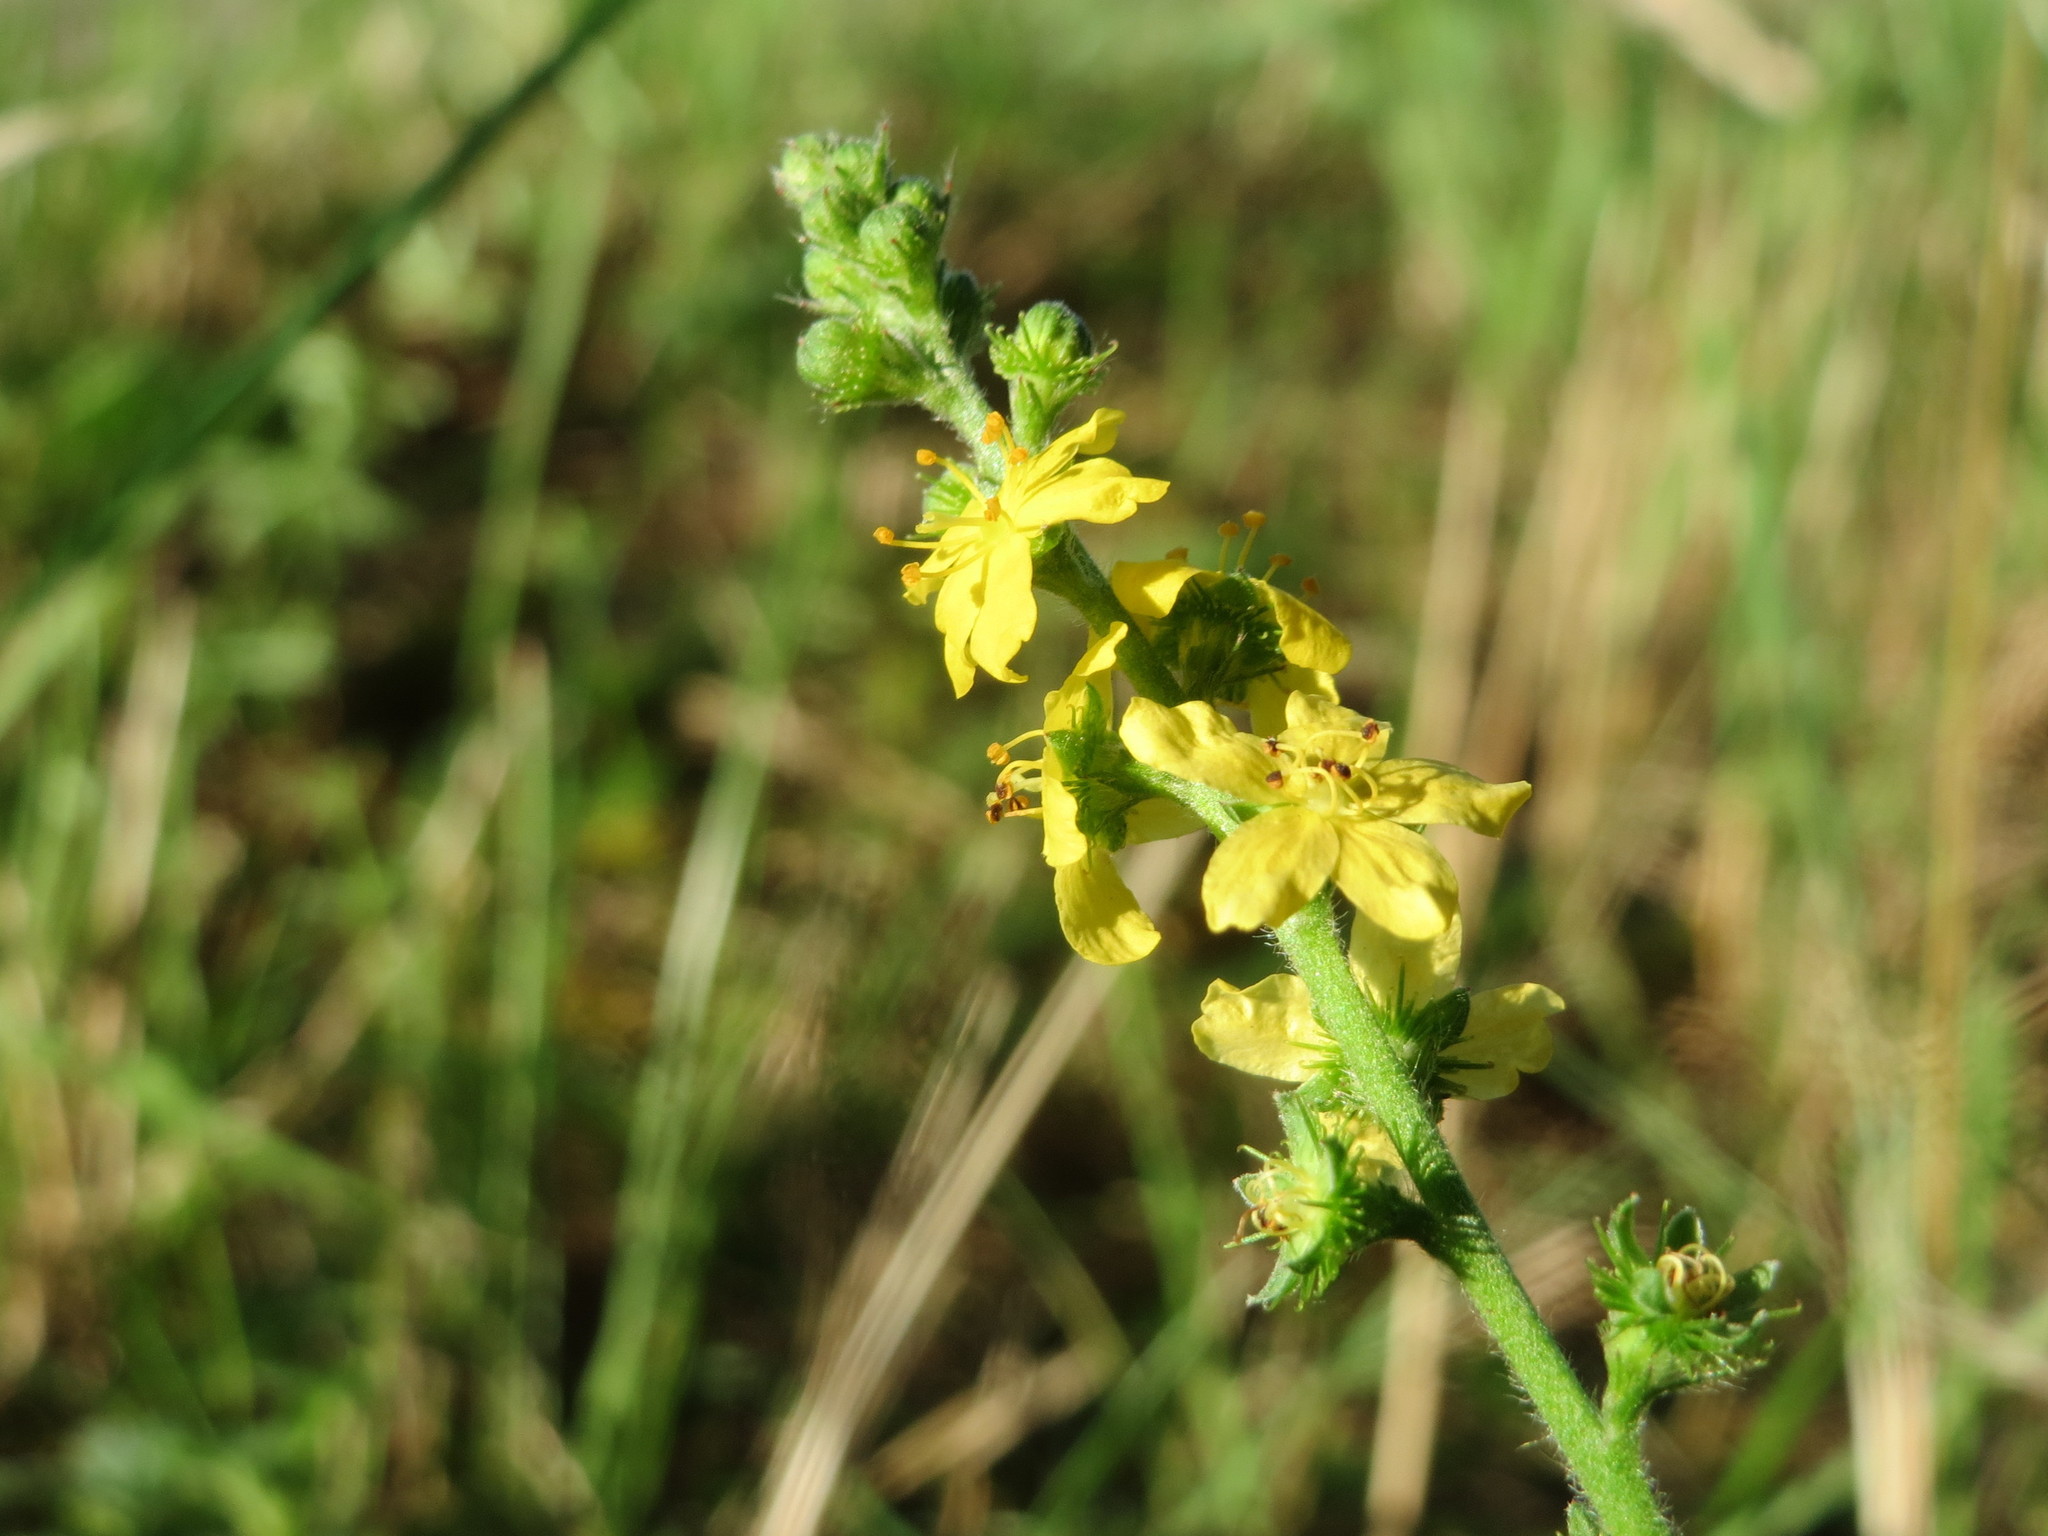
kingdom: Plantae
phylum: Tracheophyta
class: Magnoliopsida
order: Rosales
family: Rosaceae
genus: Agrimonia
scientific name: Agrimonia eupatoria
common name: Agrimony
